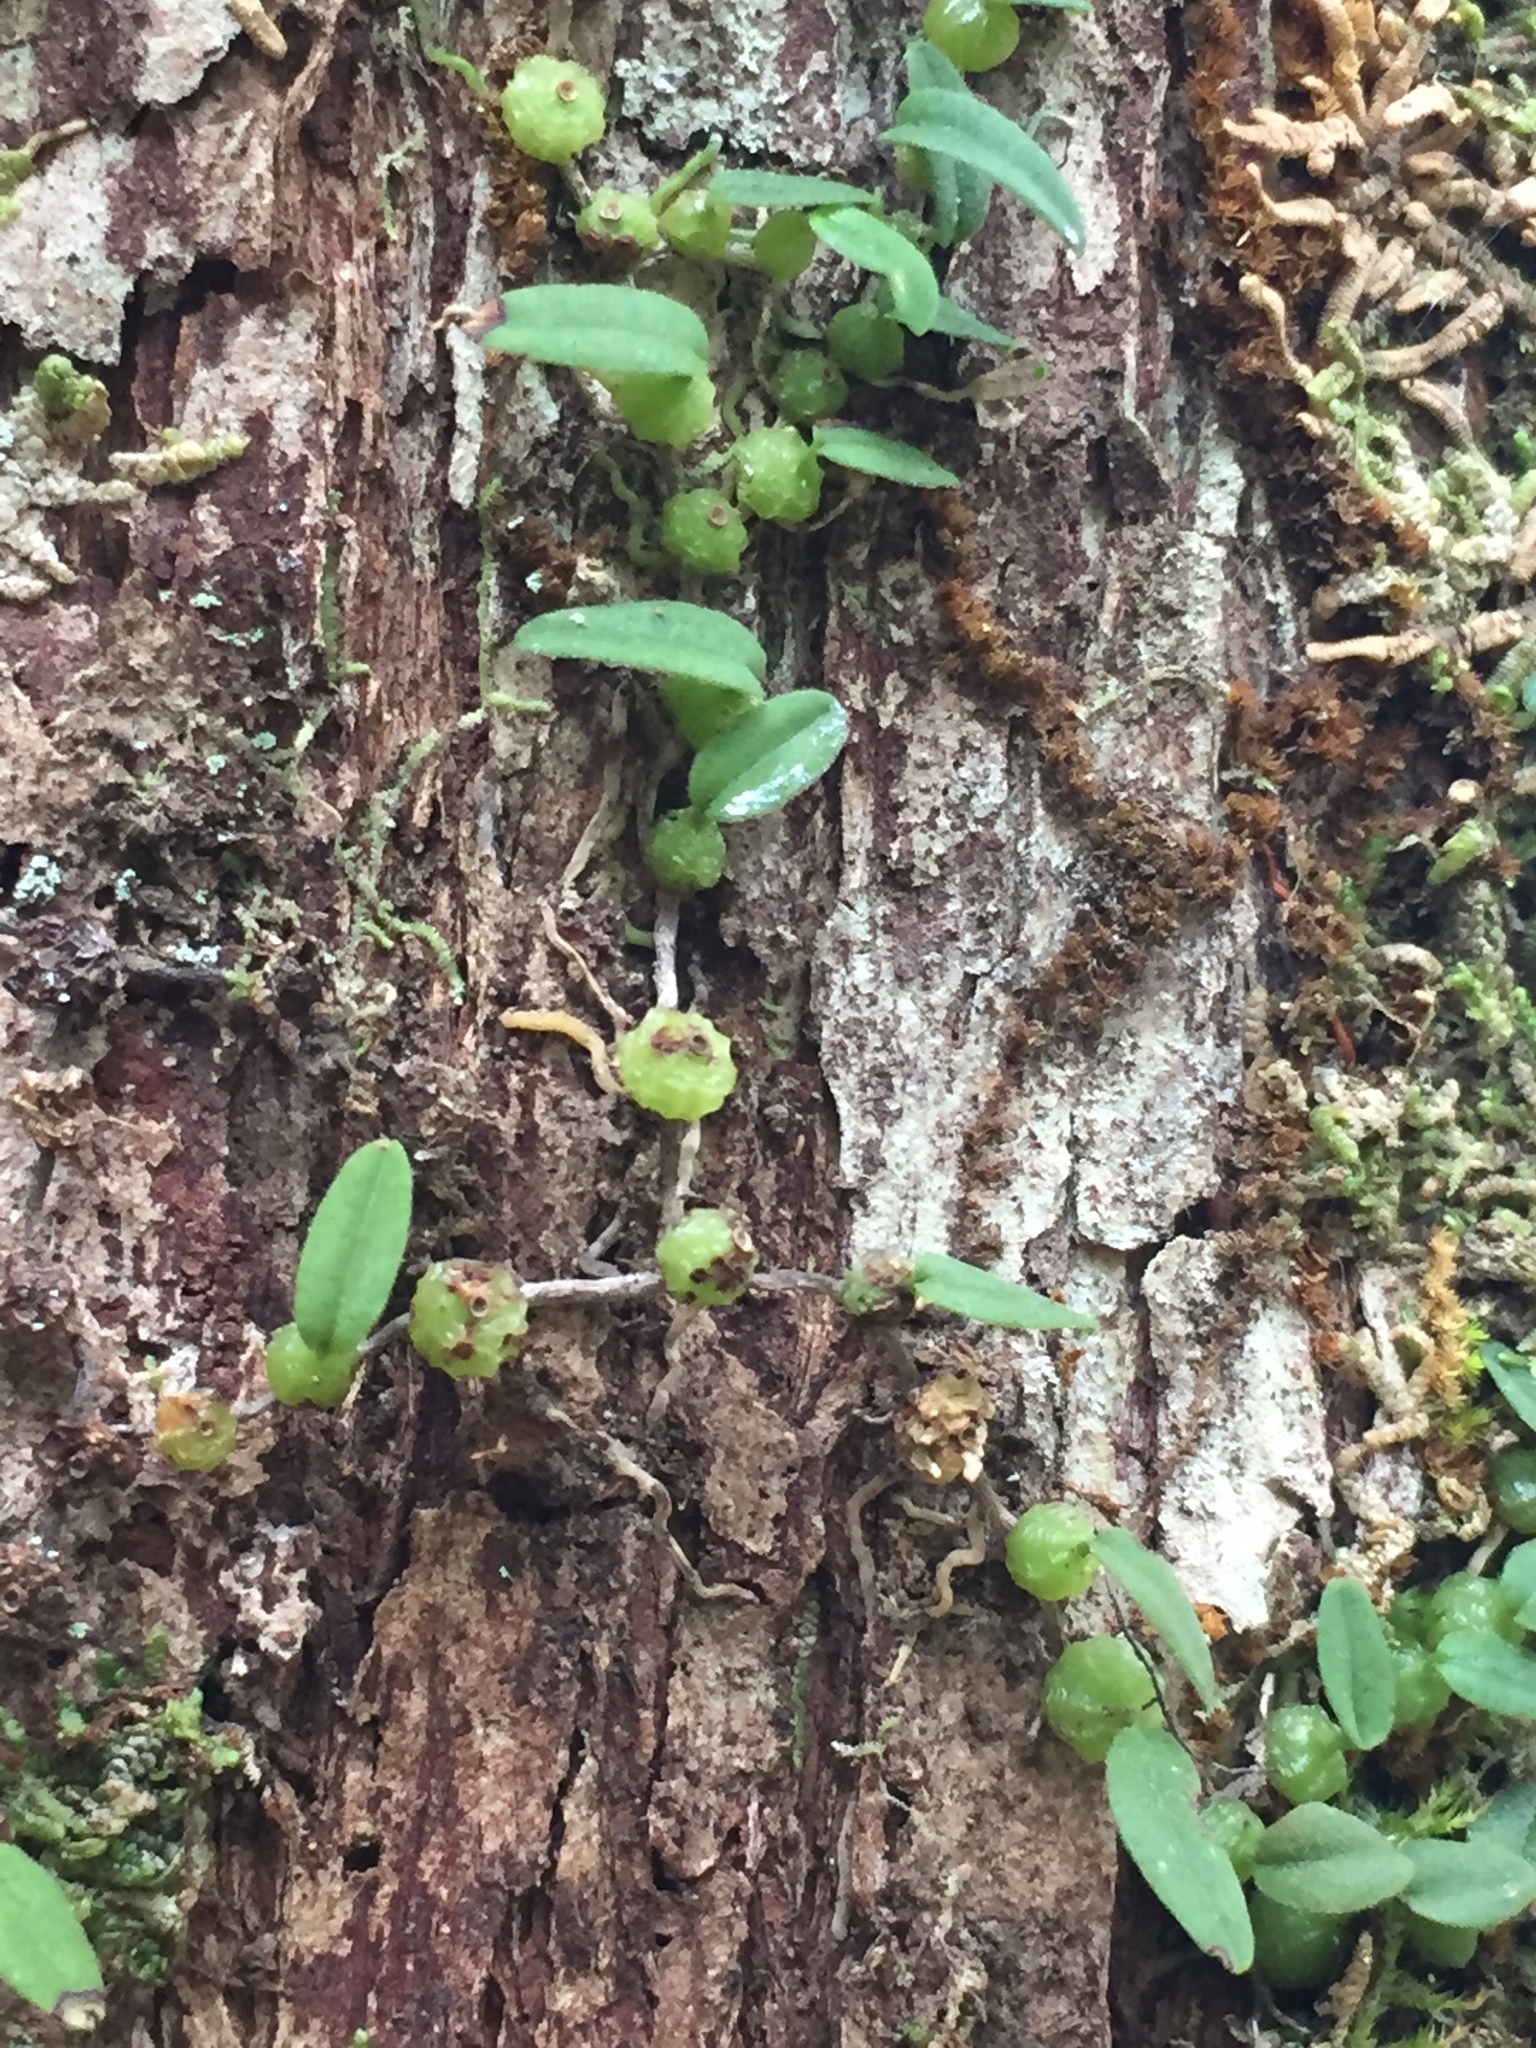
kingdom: Plantae
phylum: Tracheophyta
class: Liliopsida
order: Asparagales
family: Orchidaceae
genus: Bulbophyllum
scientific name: Bulbophyllum pygmaeum
